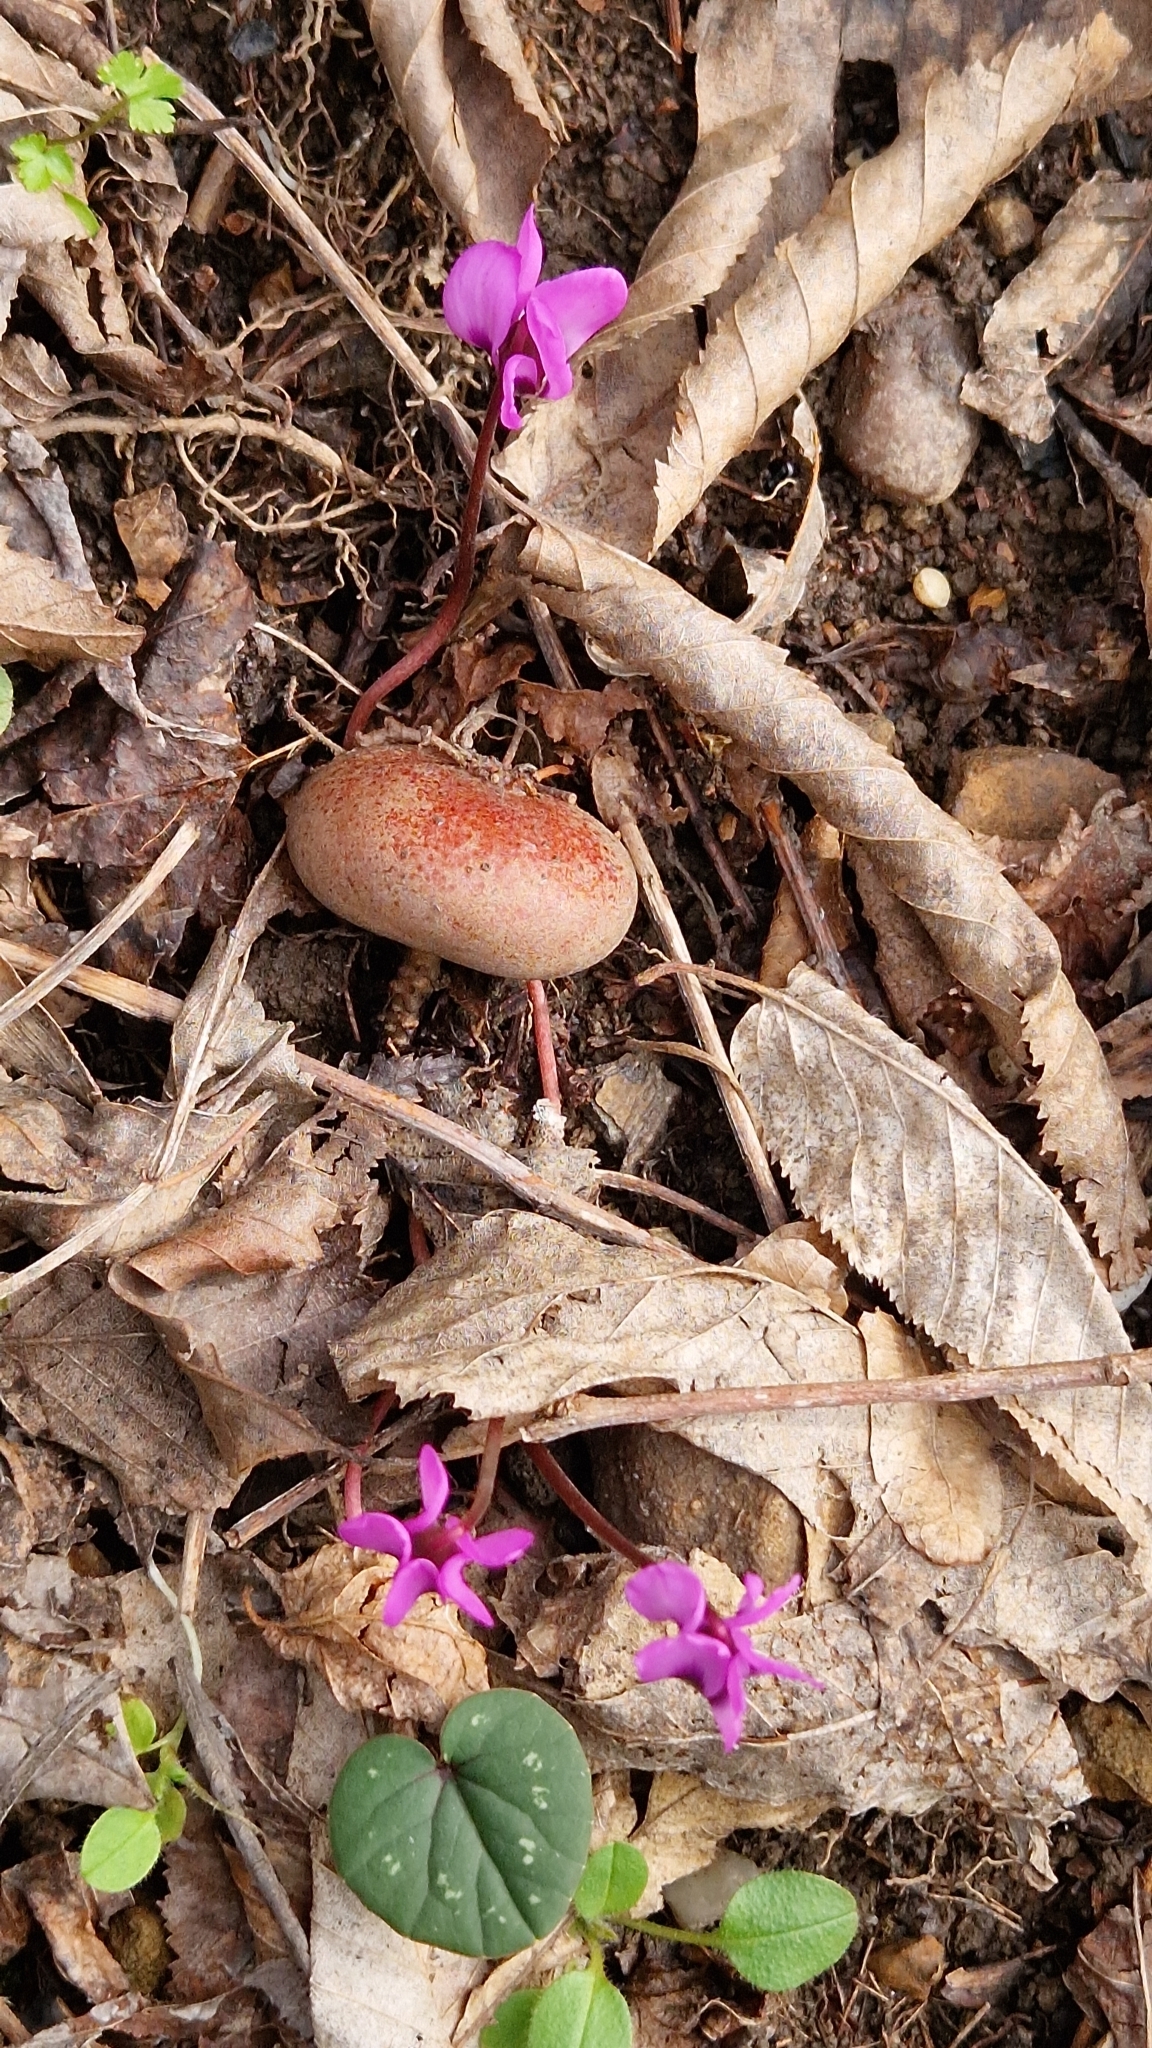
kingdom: Plantae
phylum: Tracheophyta
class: Magnoliopsida
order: Ericales
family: Primulaceae
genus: Cyclamen
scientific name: Cyclamen coum
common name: Eastern sowbread
